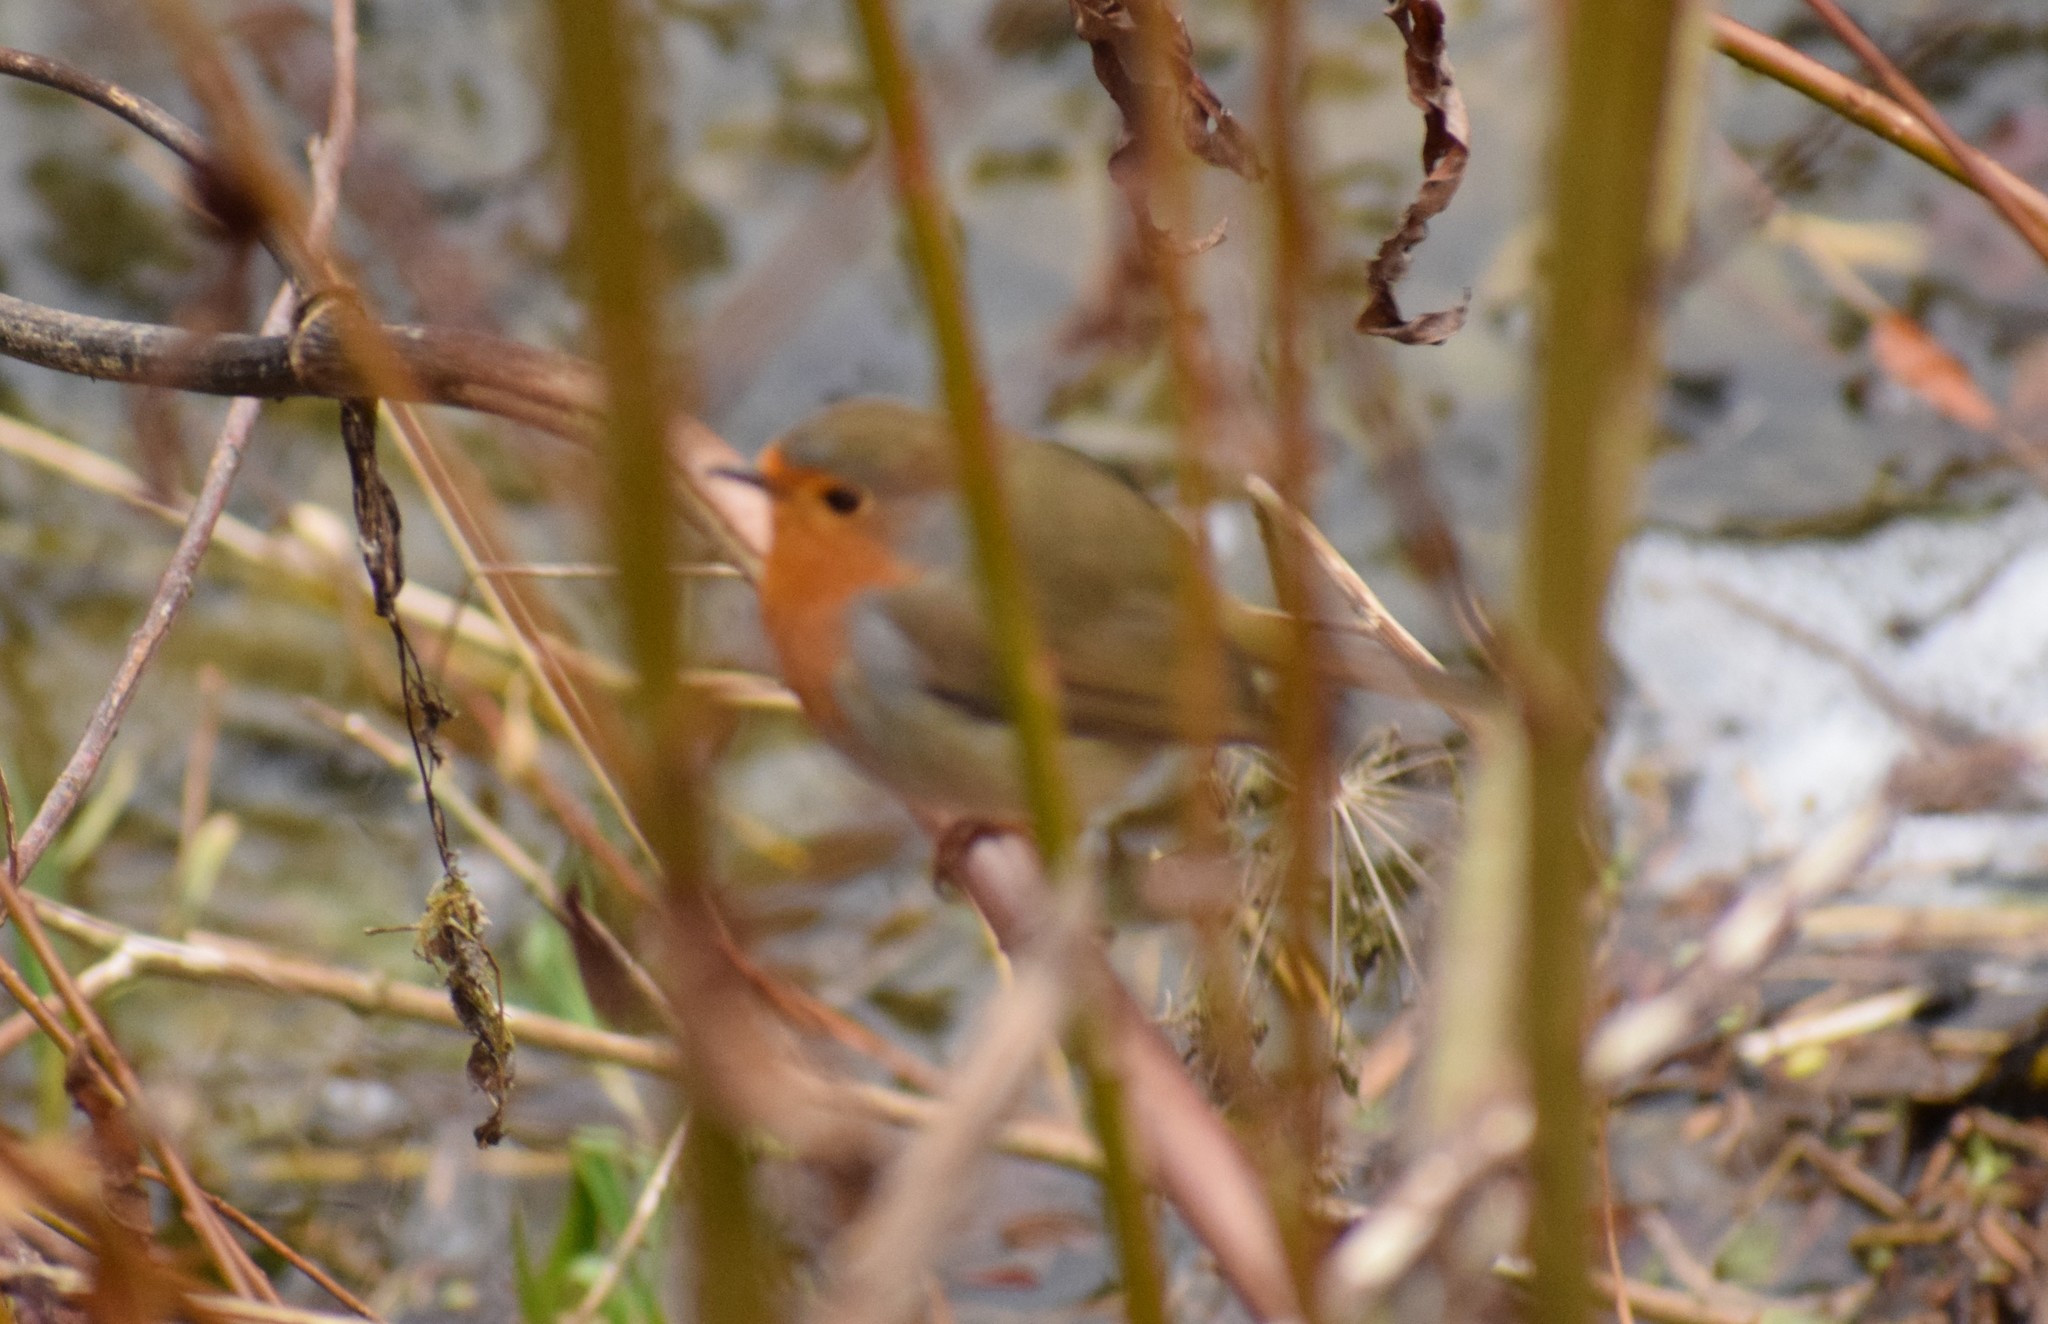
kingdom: Animalia
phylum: Chordata
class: Aves
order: Passeriformes
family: Muscicapidae
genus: Erithacus
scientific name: Erithacus rubecula
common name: European robin
